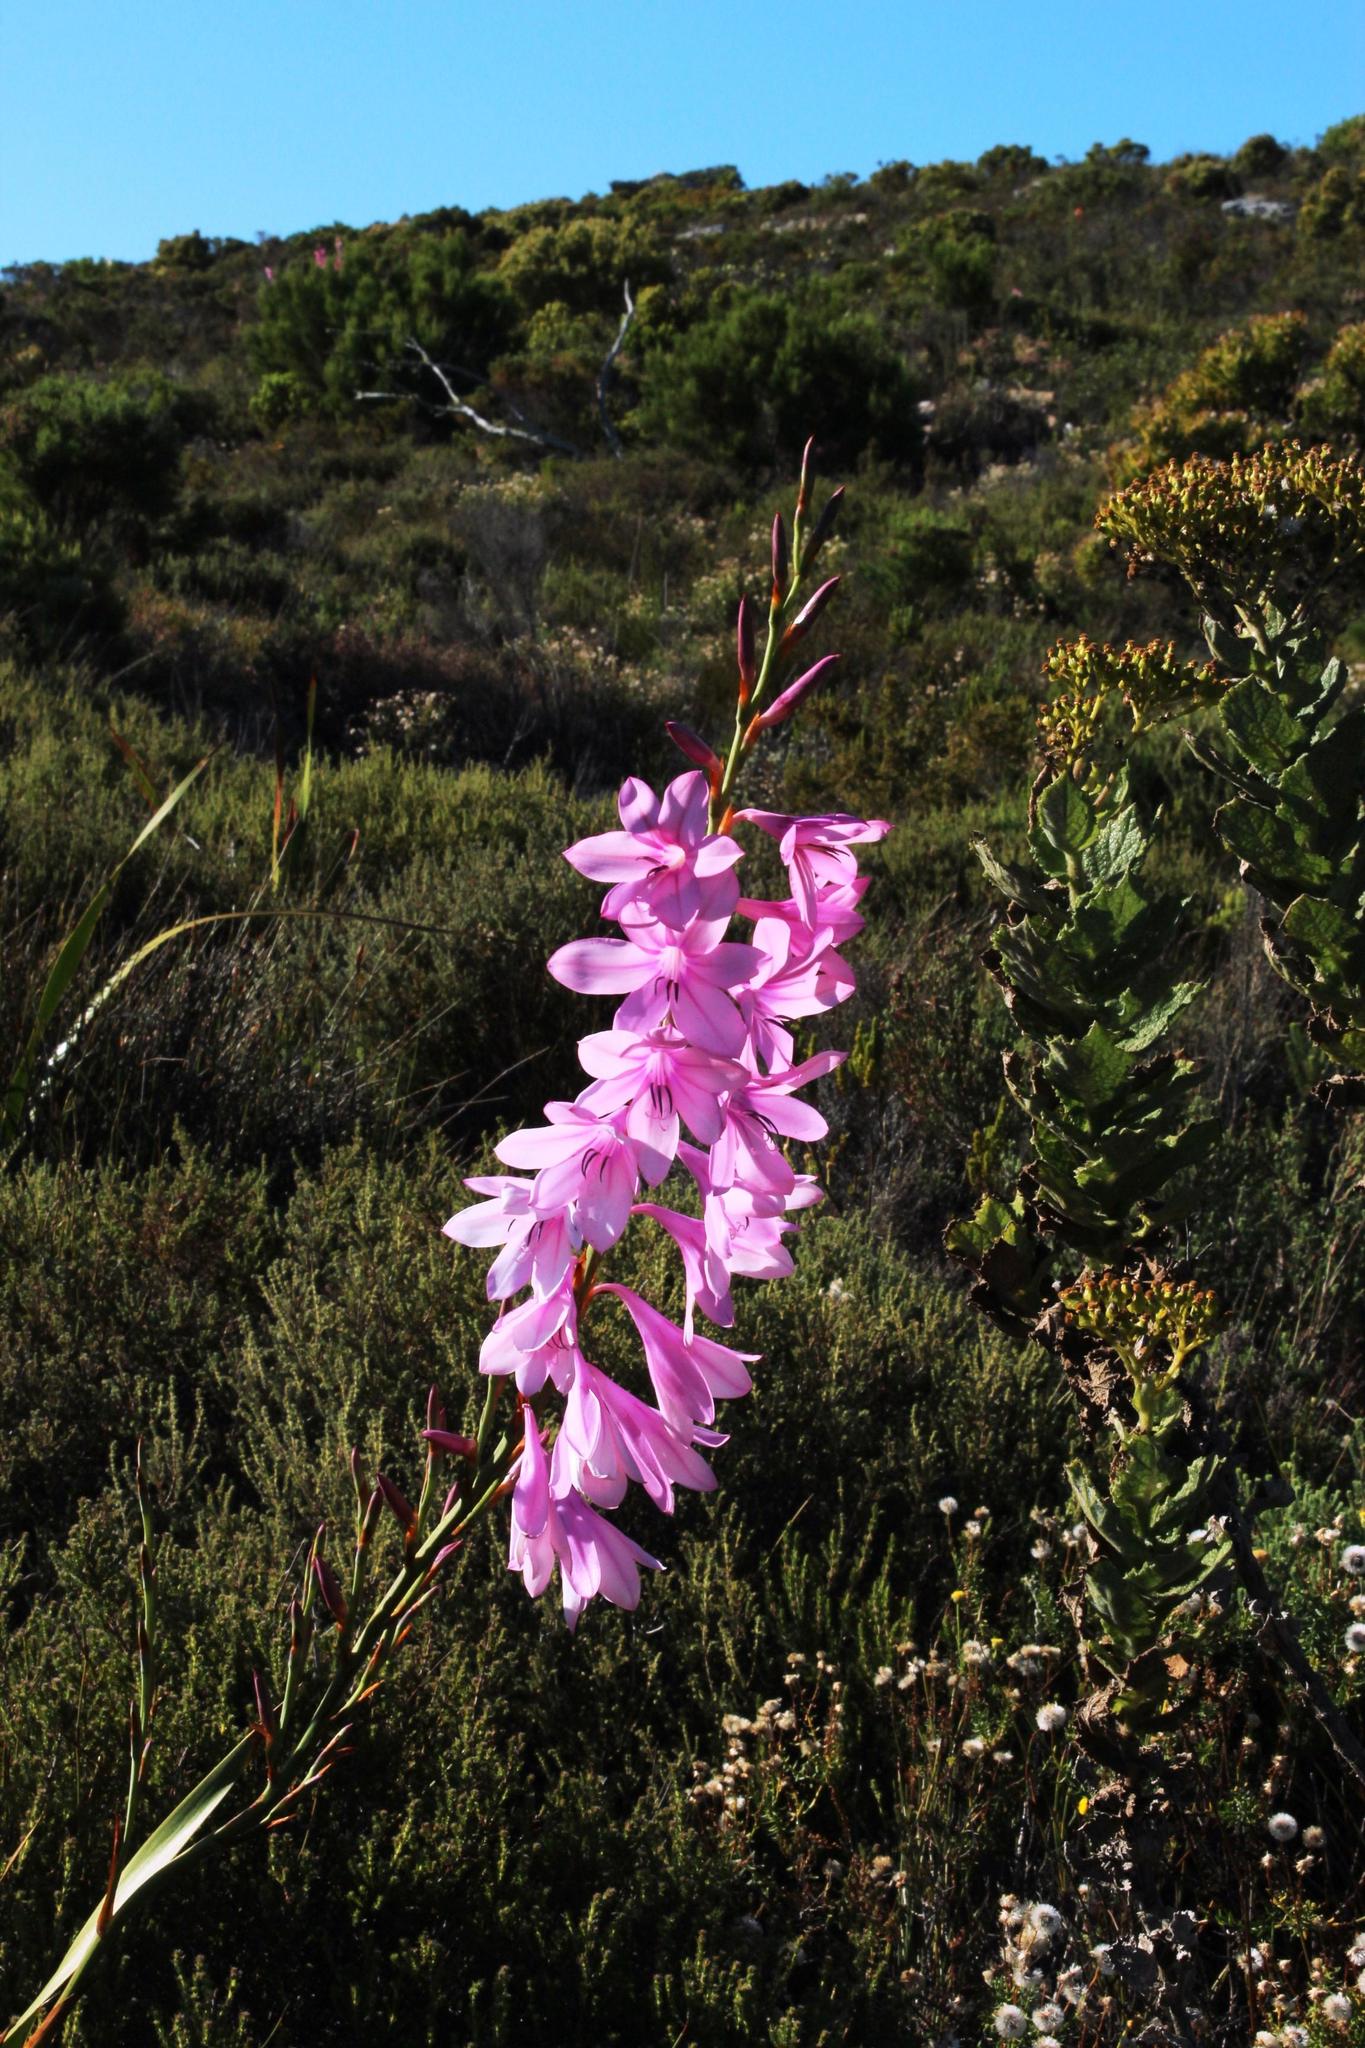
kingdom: Plantae
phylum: Tracheophyta
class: Liliopsida
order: Asparagales
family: Iridaceae
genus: Watsonia
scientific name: Watsonia borbonica
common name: Bugle-lily
